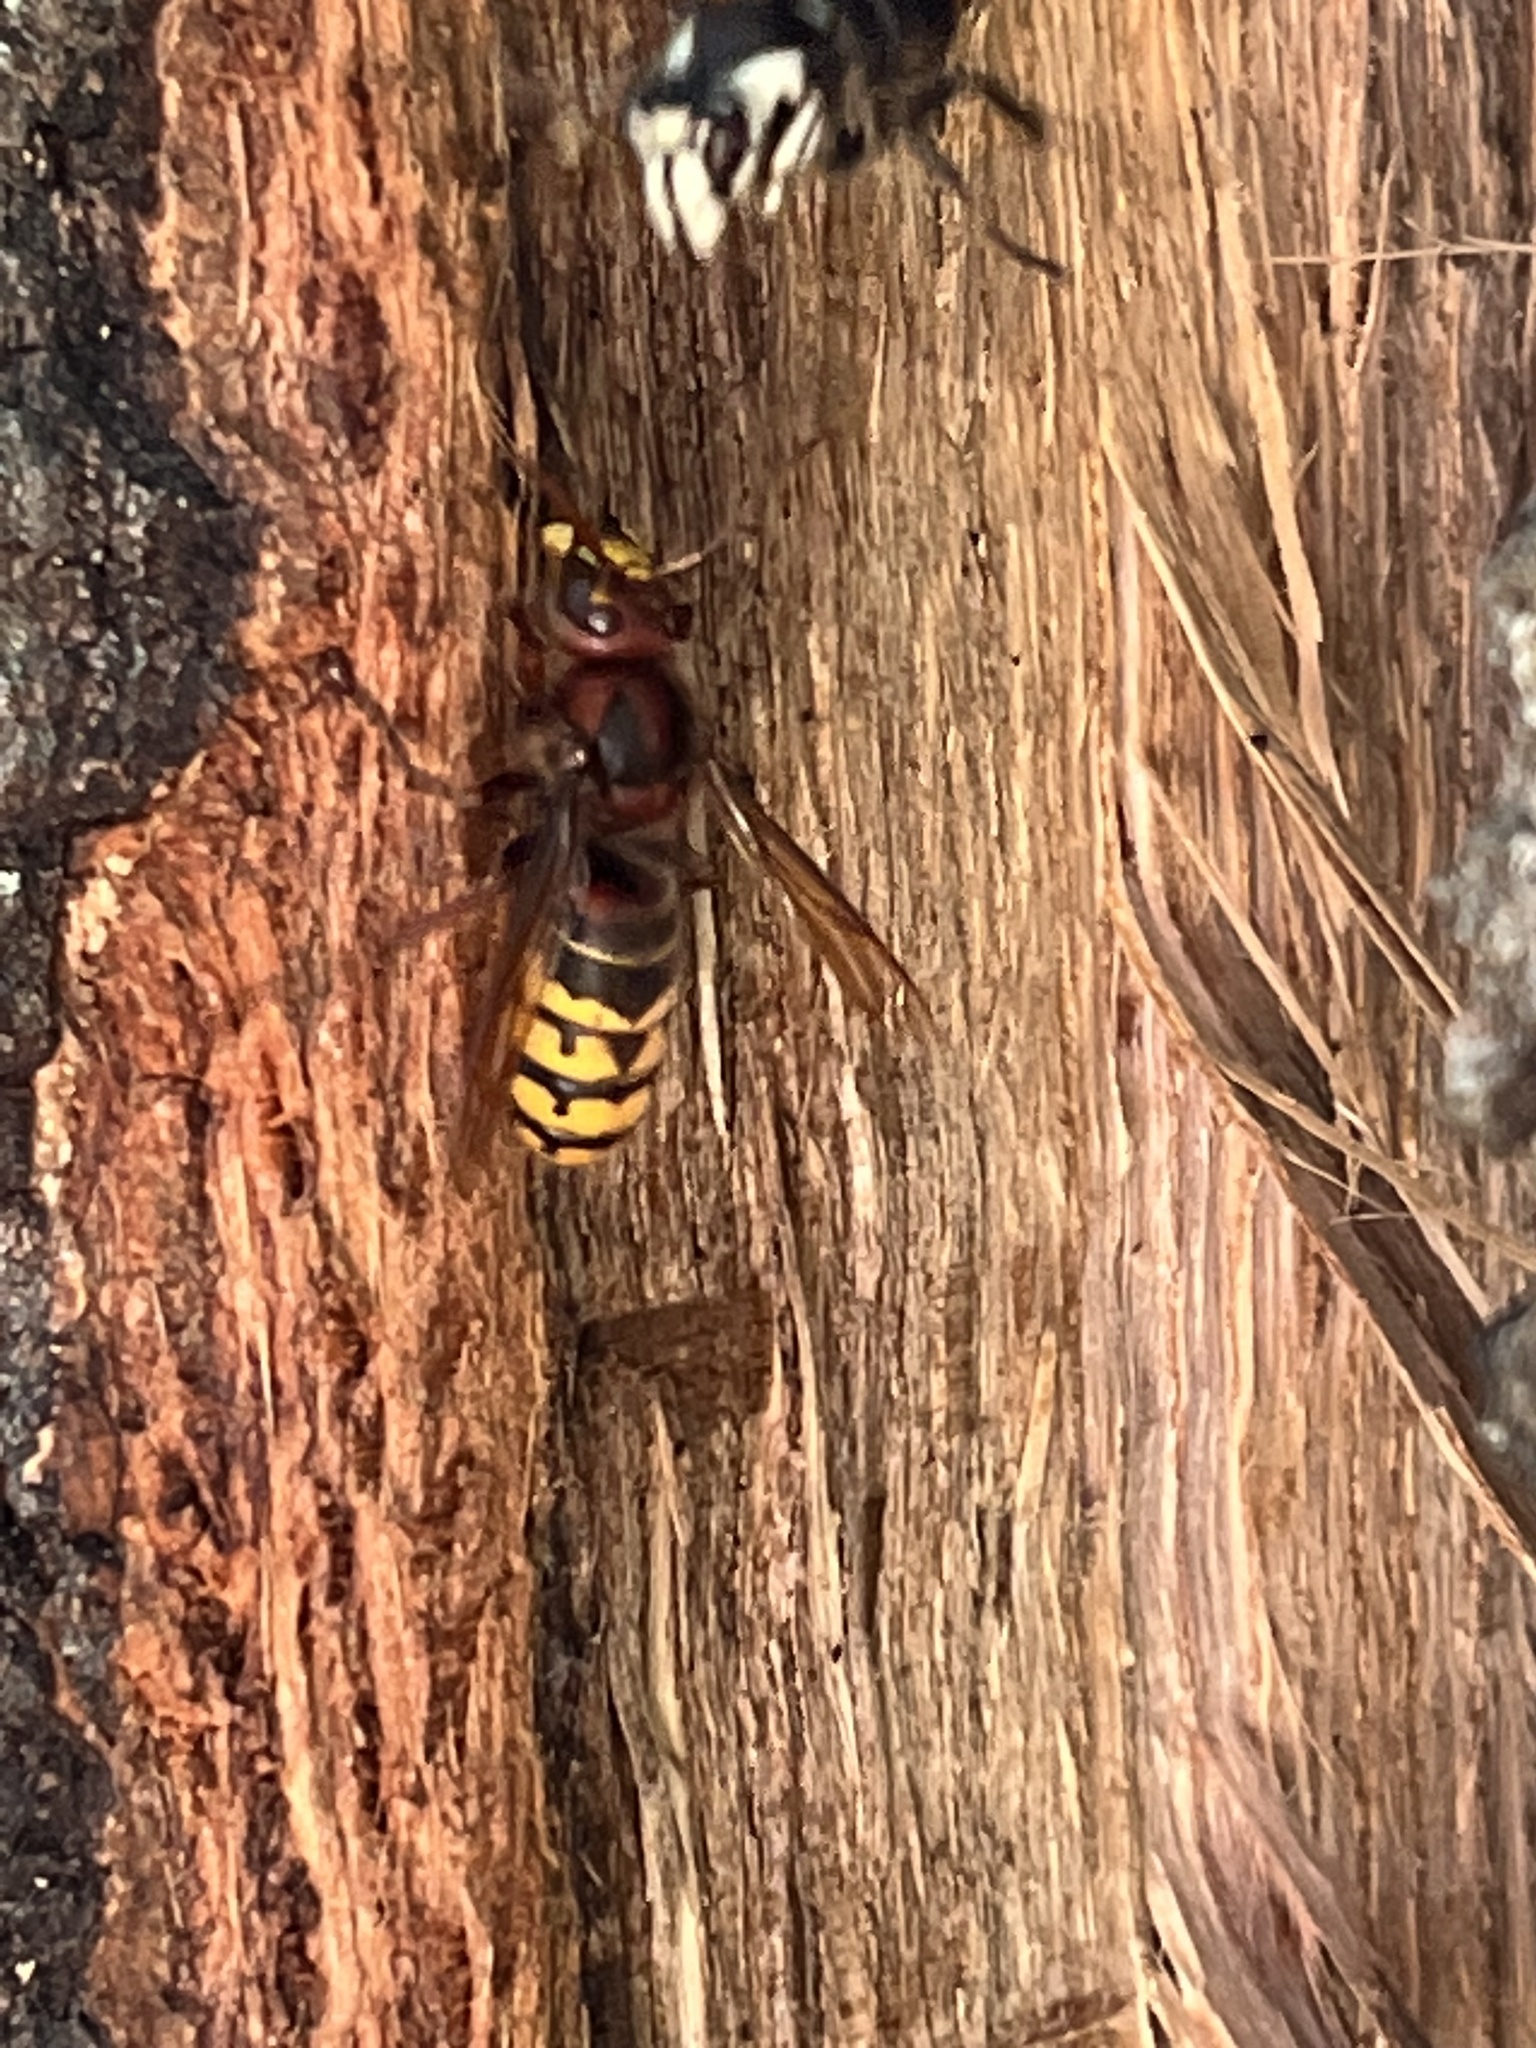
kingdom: Animalia
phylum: Arthropoda
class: Insecta
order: Hymenoptera
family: Vespidae
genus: Vespa
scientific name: Vespa crabro
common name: Hornet
